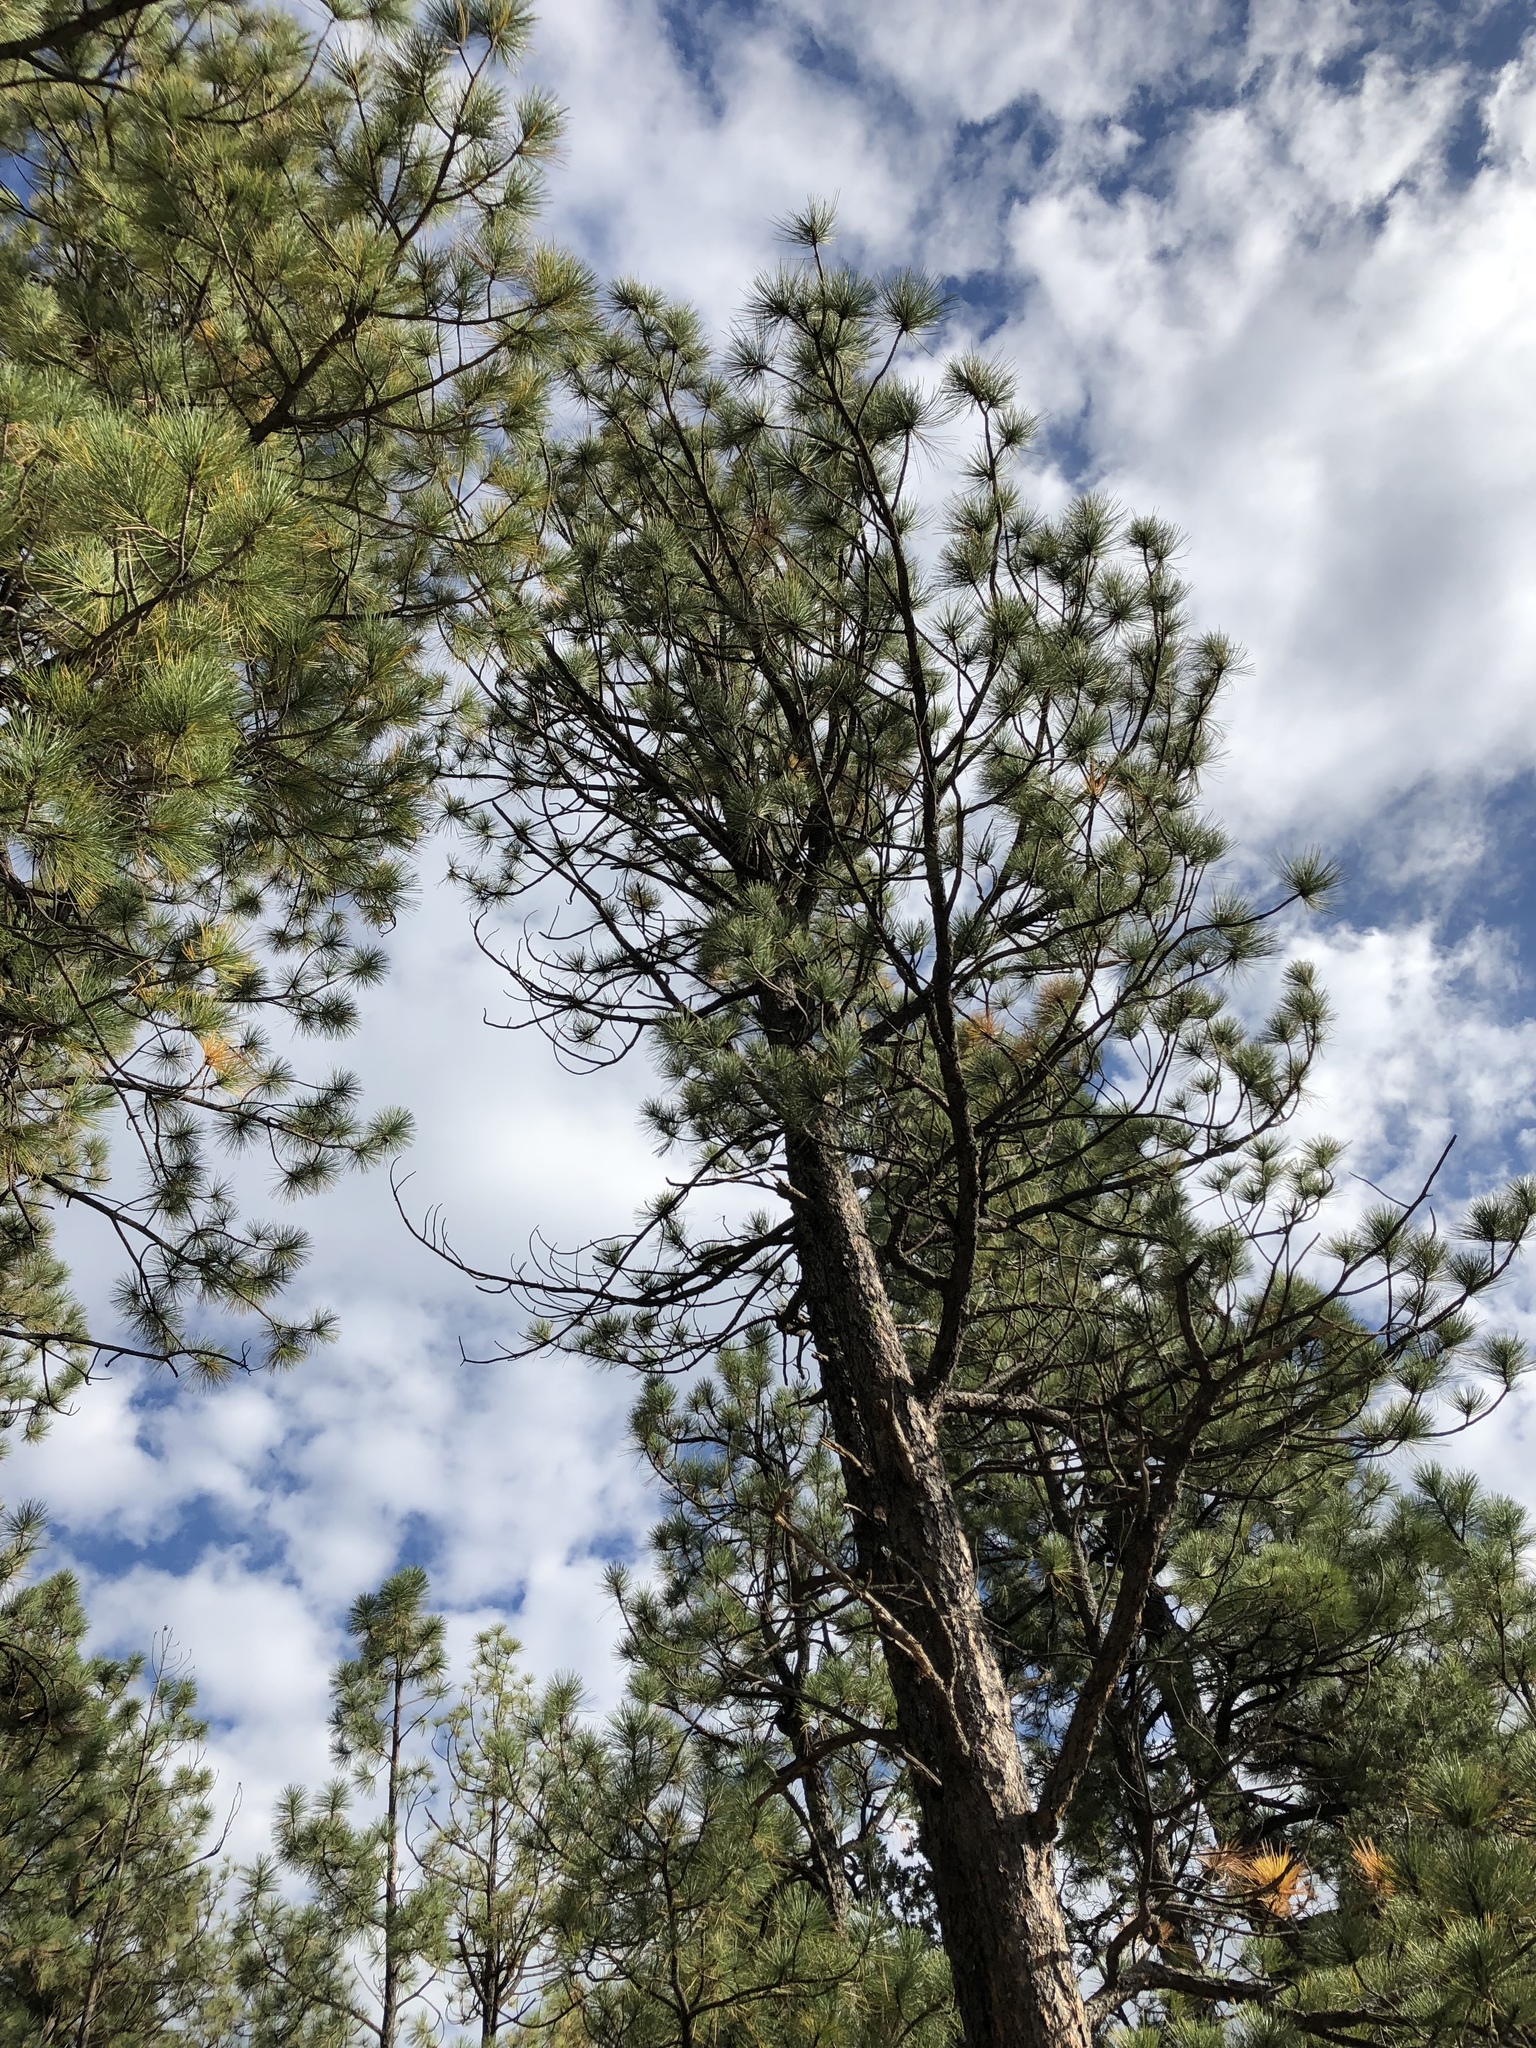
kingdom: Plantae
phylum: Tracheophyta
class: Pinopsida
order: Pinales
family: Pinaceae
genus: Pinus
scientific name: Pinus ponderosa
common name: Western yellow-pine
